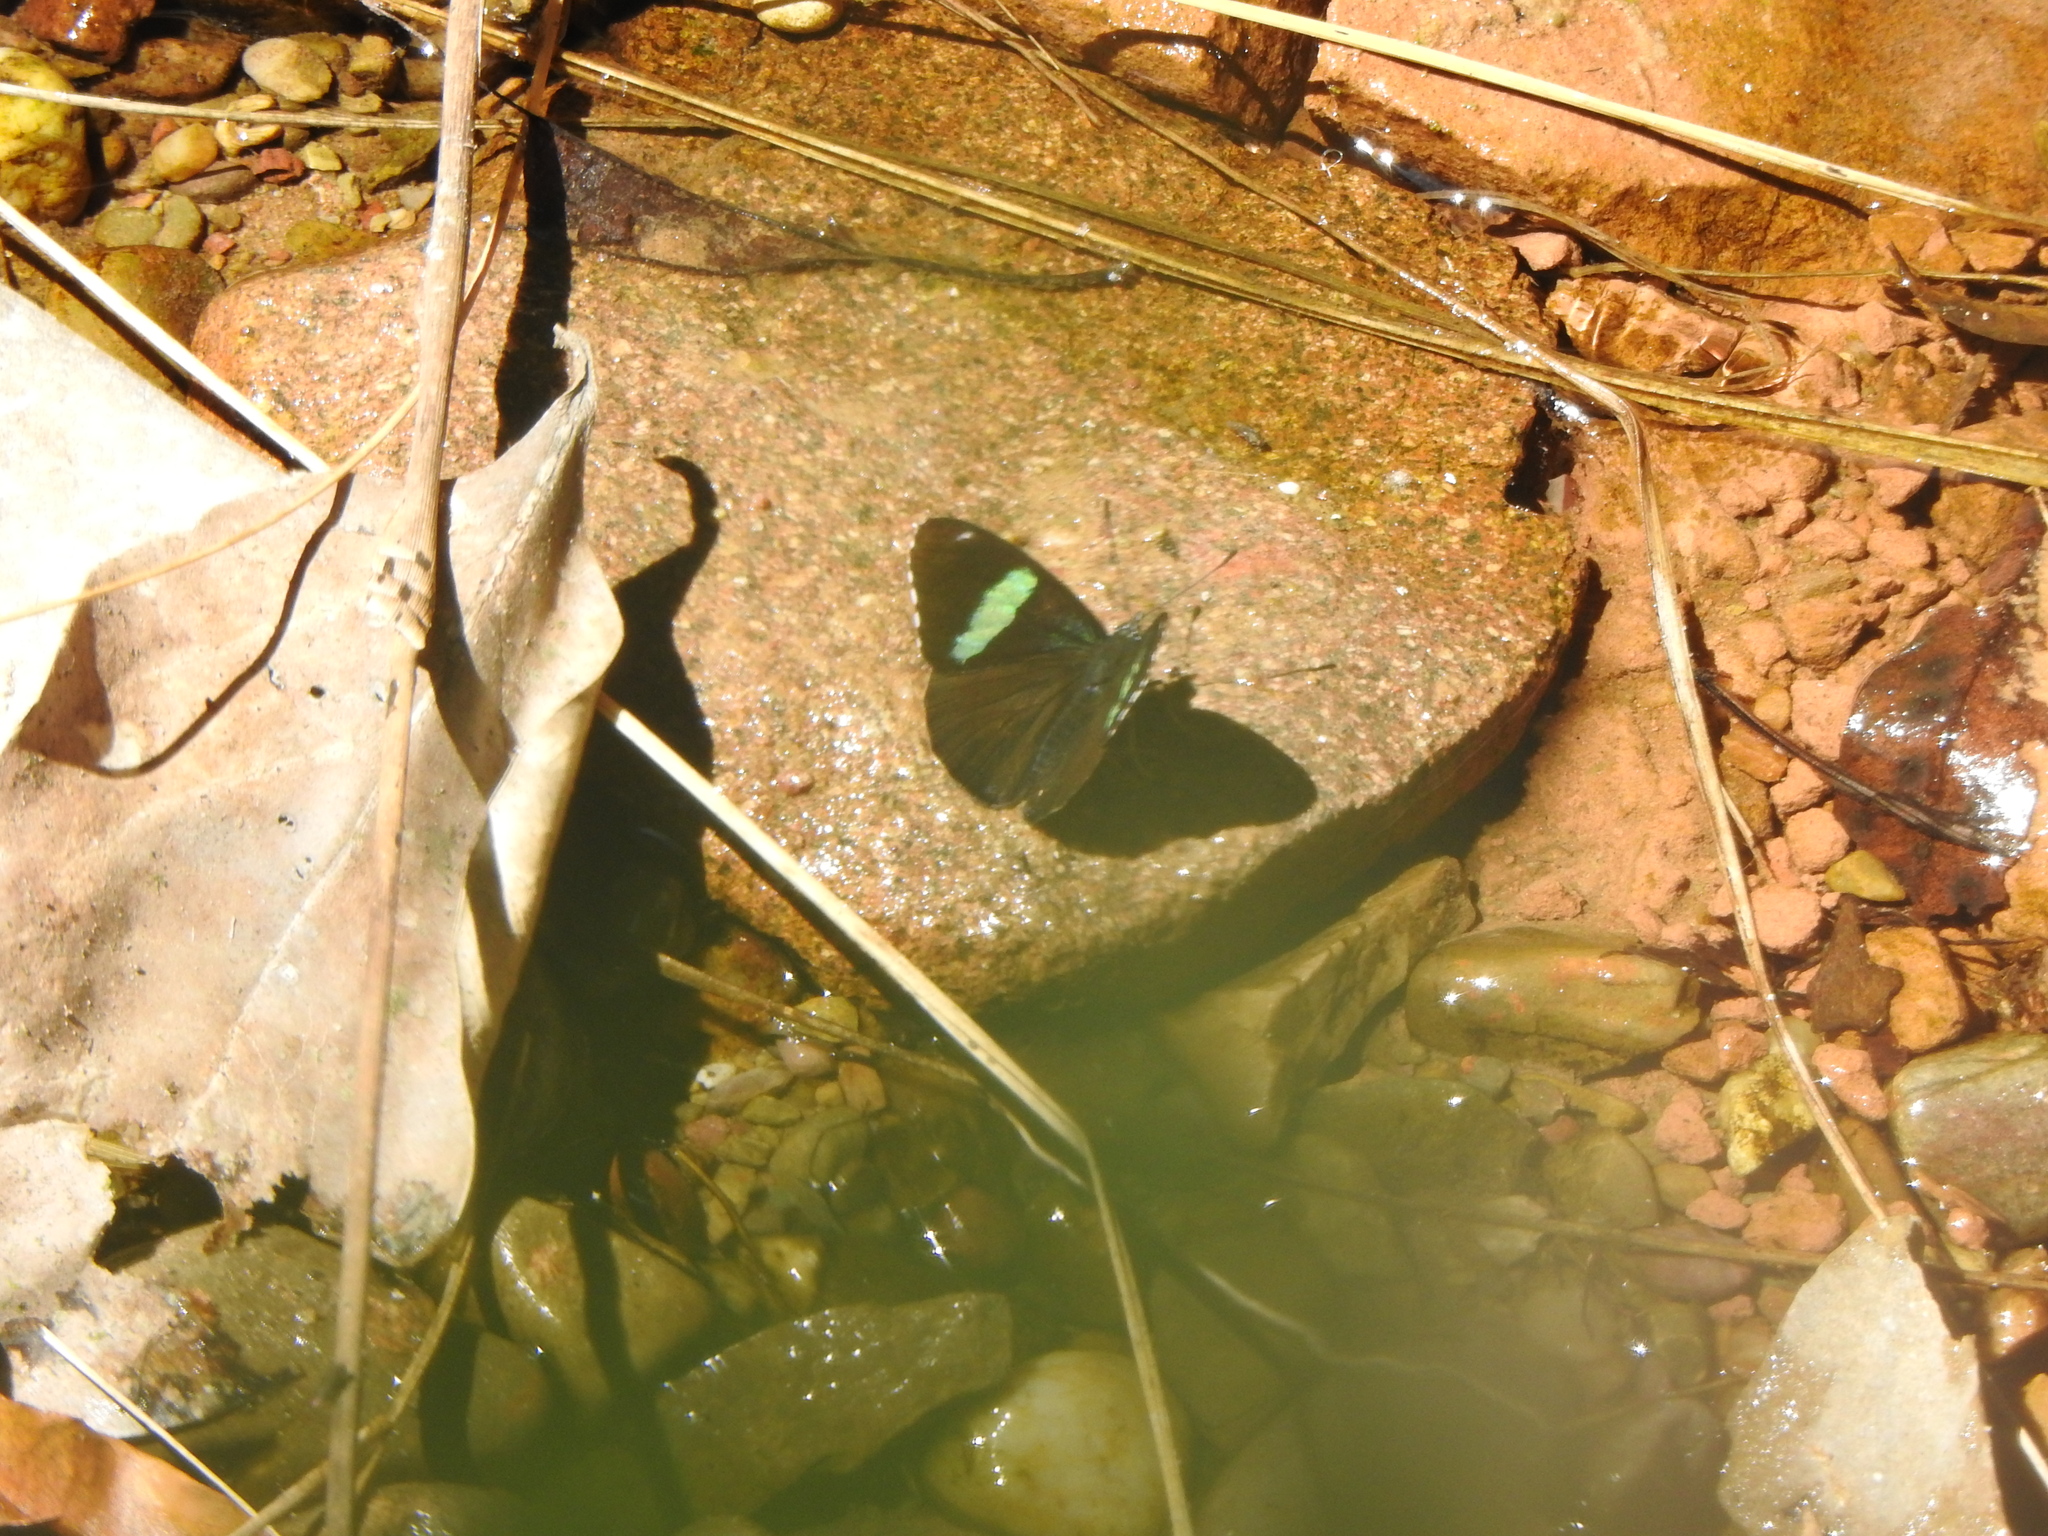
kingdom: Animalia
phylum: Arthropoda
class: Insecta
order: Lepidoptera
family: Nymphalidae
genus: Perisama
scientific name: Perisama oppelii
